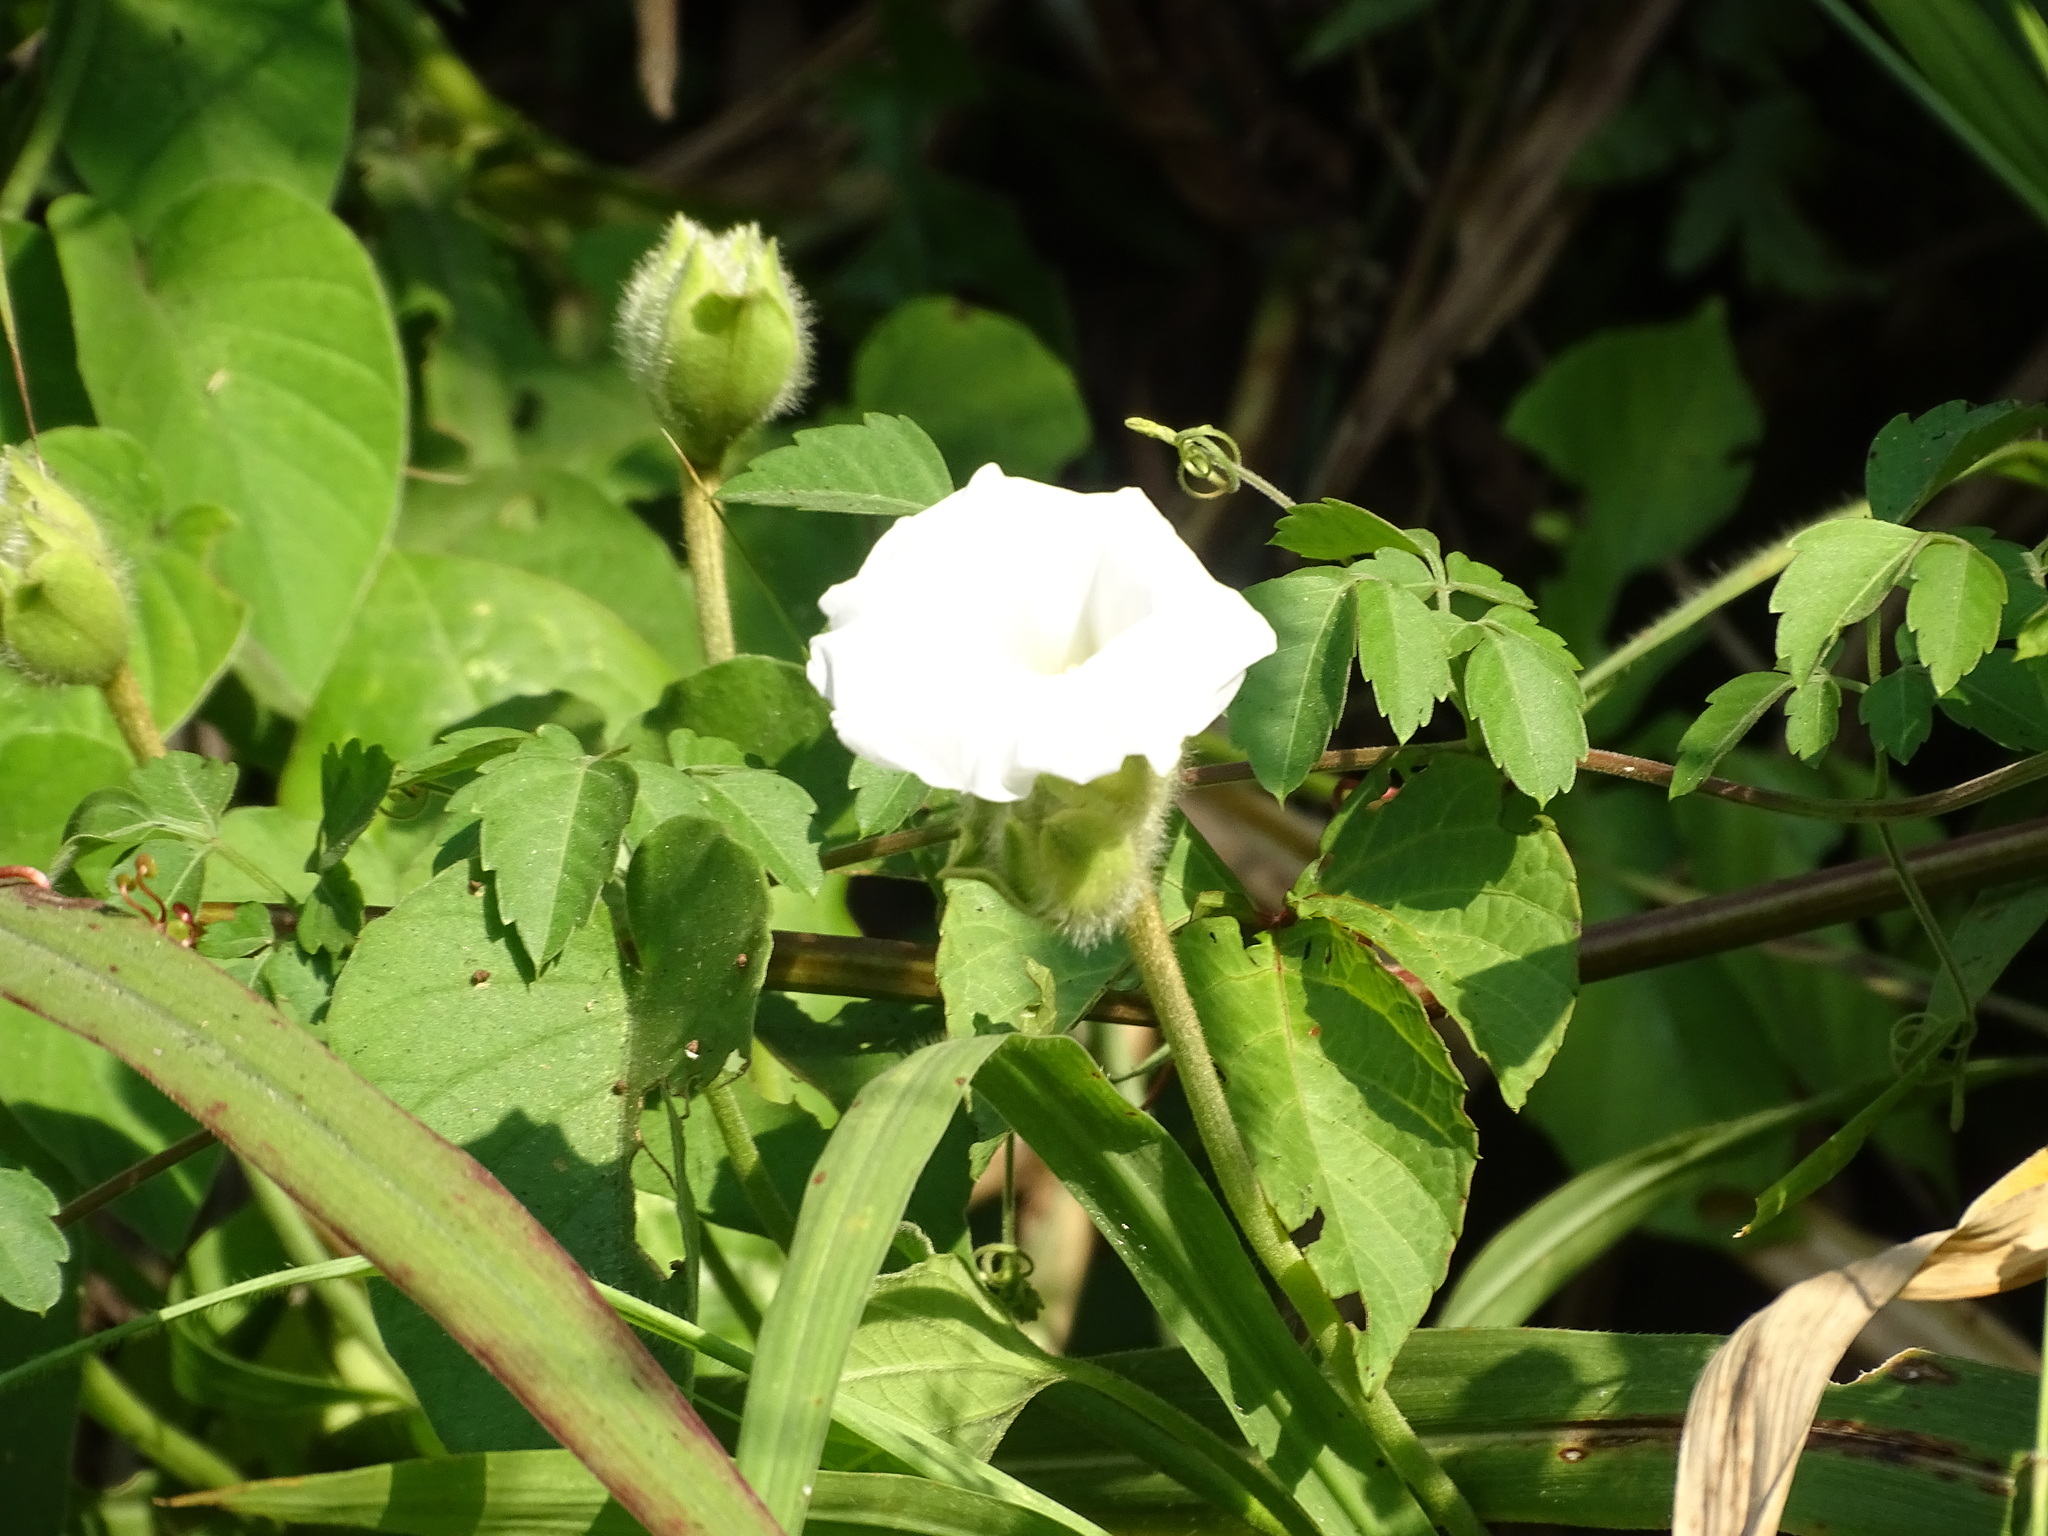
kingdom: Plantae
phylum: Tracheophyta
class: Magnoliopsida
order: Solanales
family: Convolvulaceae
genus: Odonellia
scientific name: Odonellia hirtiflora
